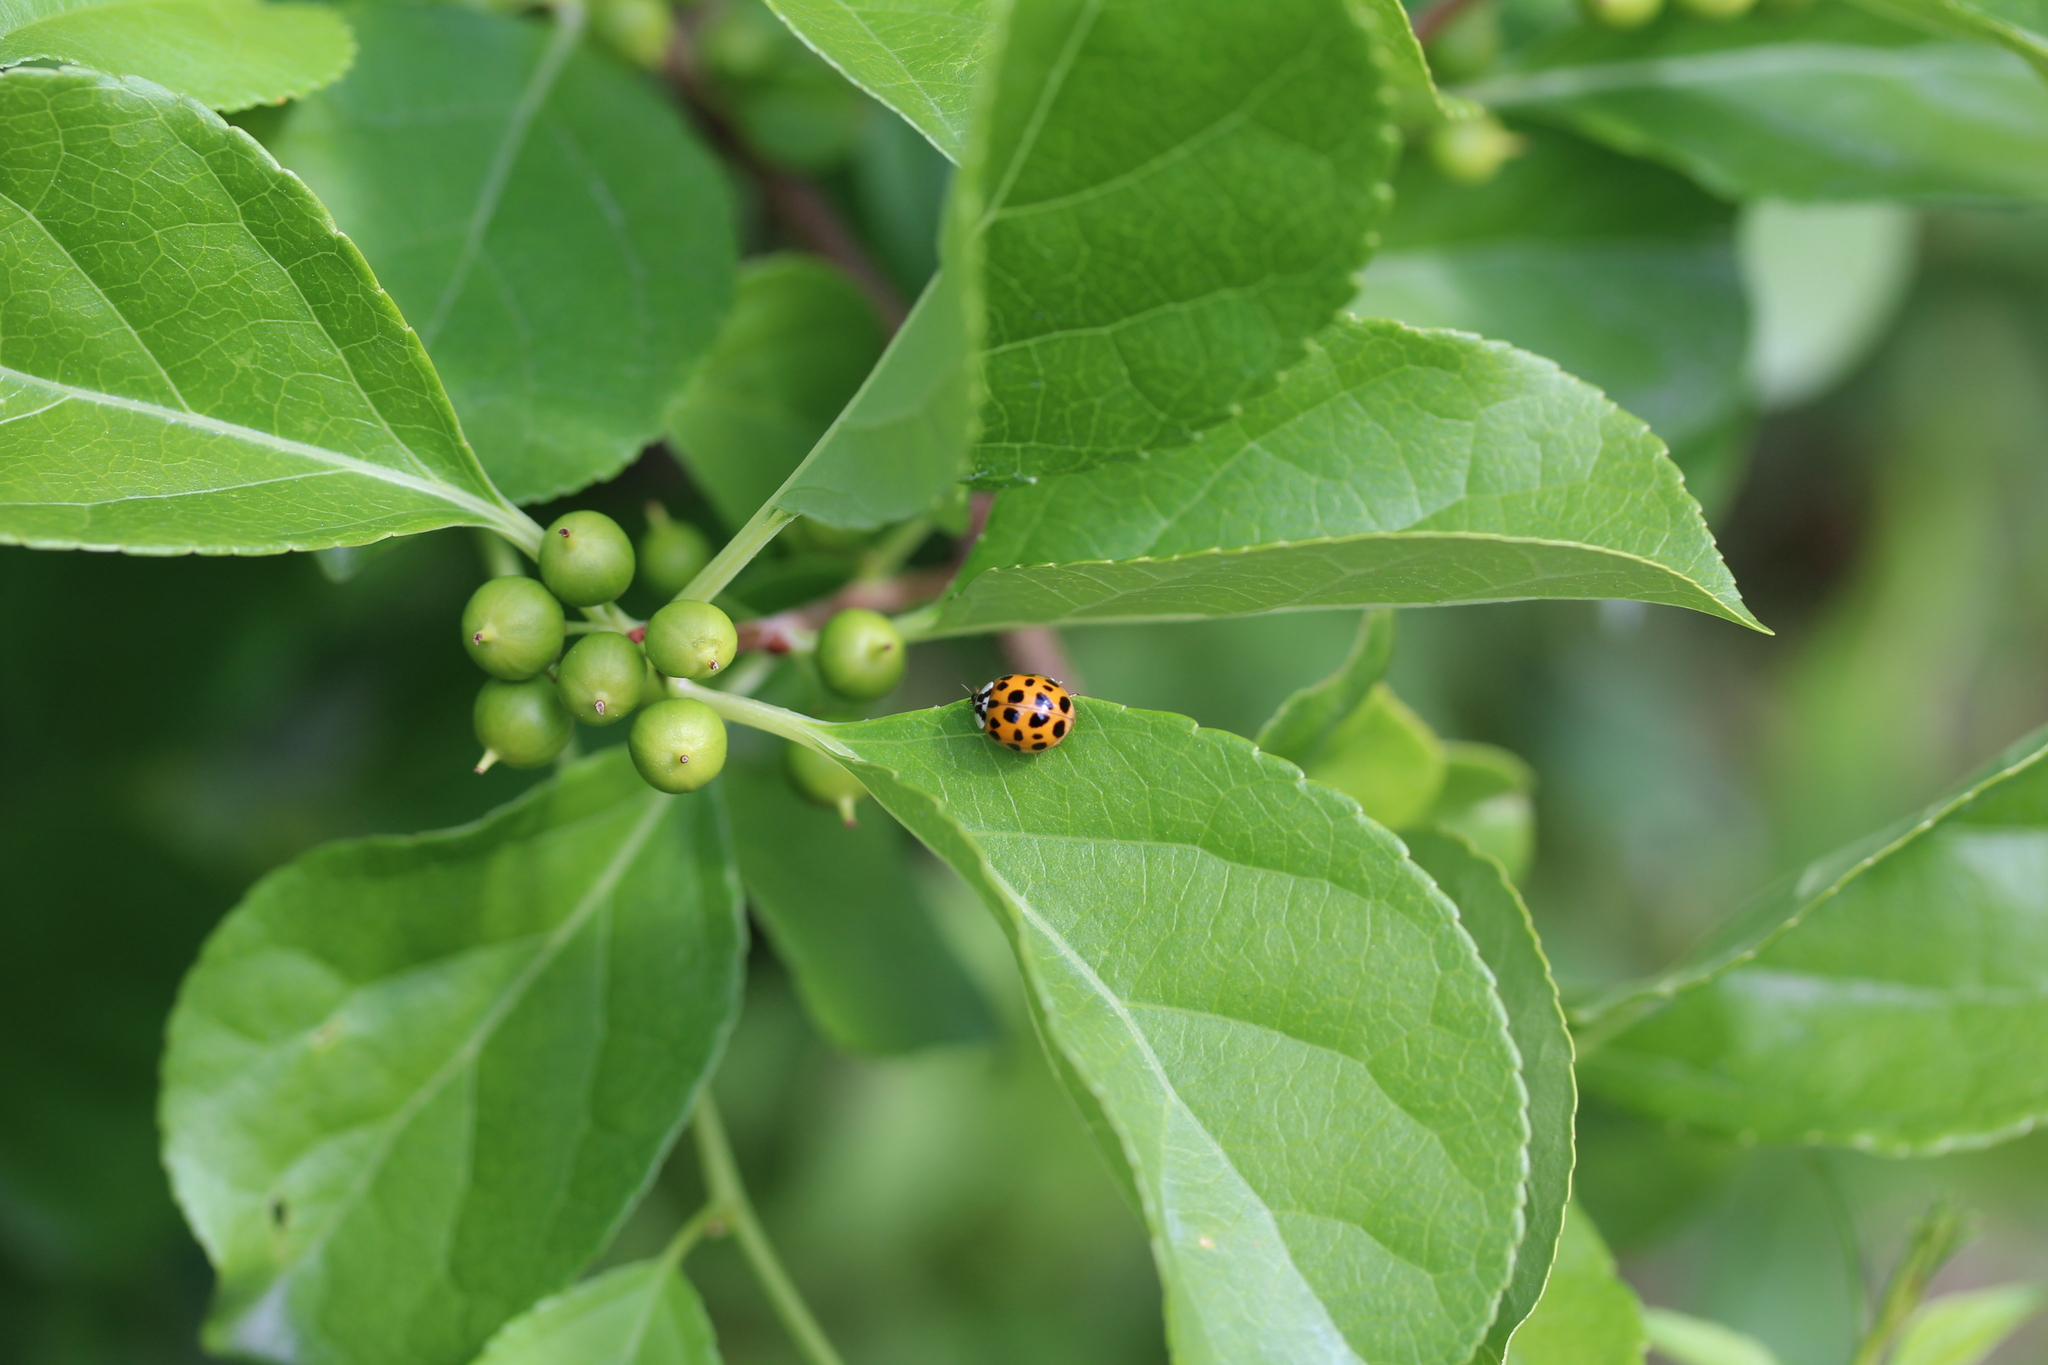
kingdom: Animalia
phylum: Arthropoda
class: Insecta
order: Coleoptera
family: Coccinellidae
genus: Harmonia
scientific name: Harmonia axyridis
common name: Harlequin ladybird
